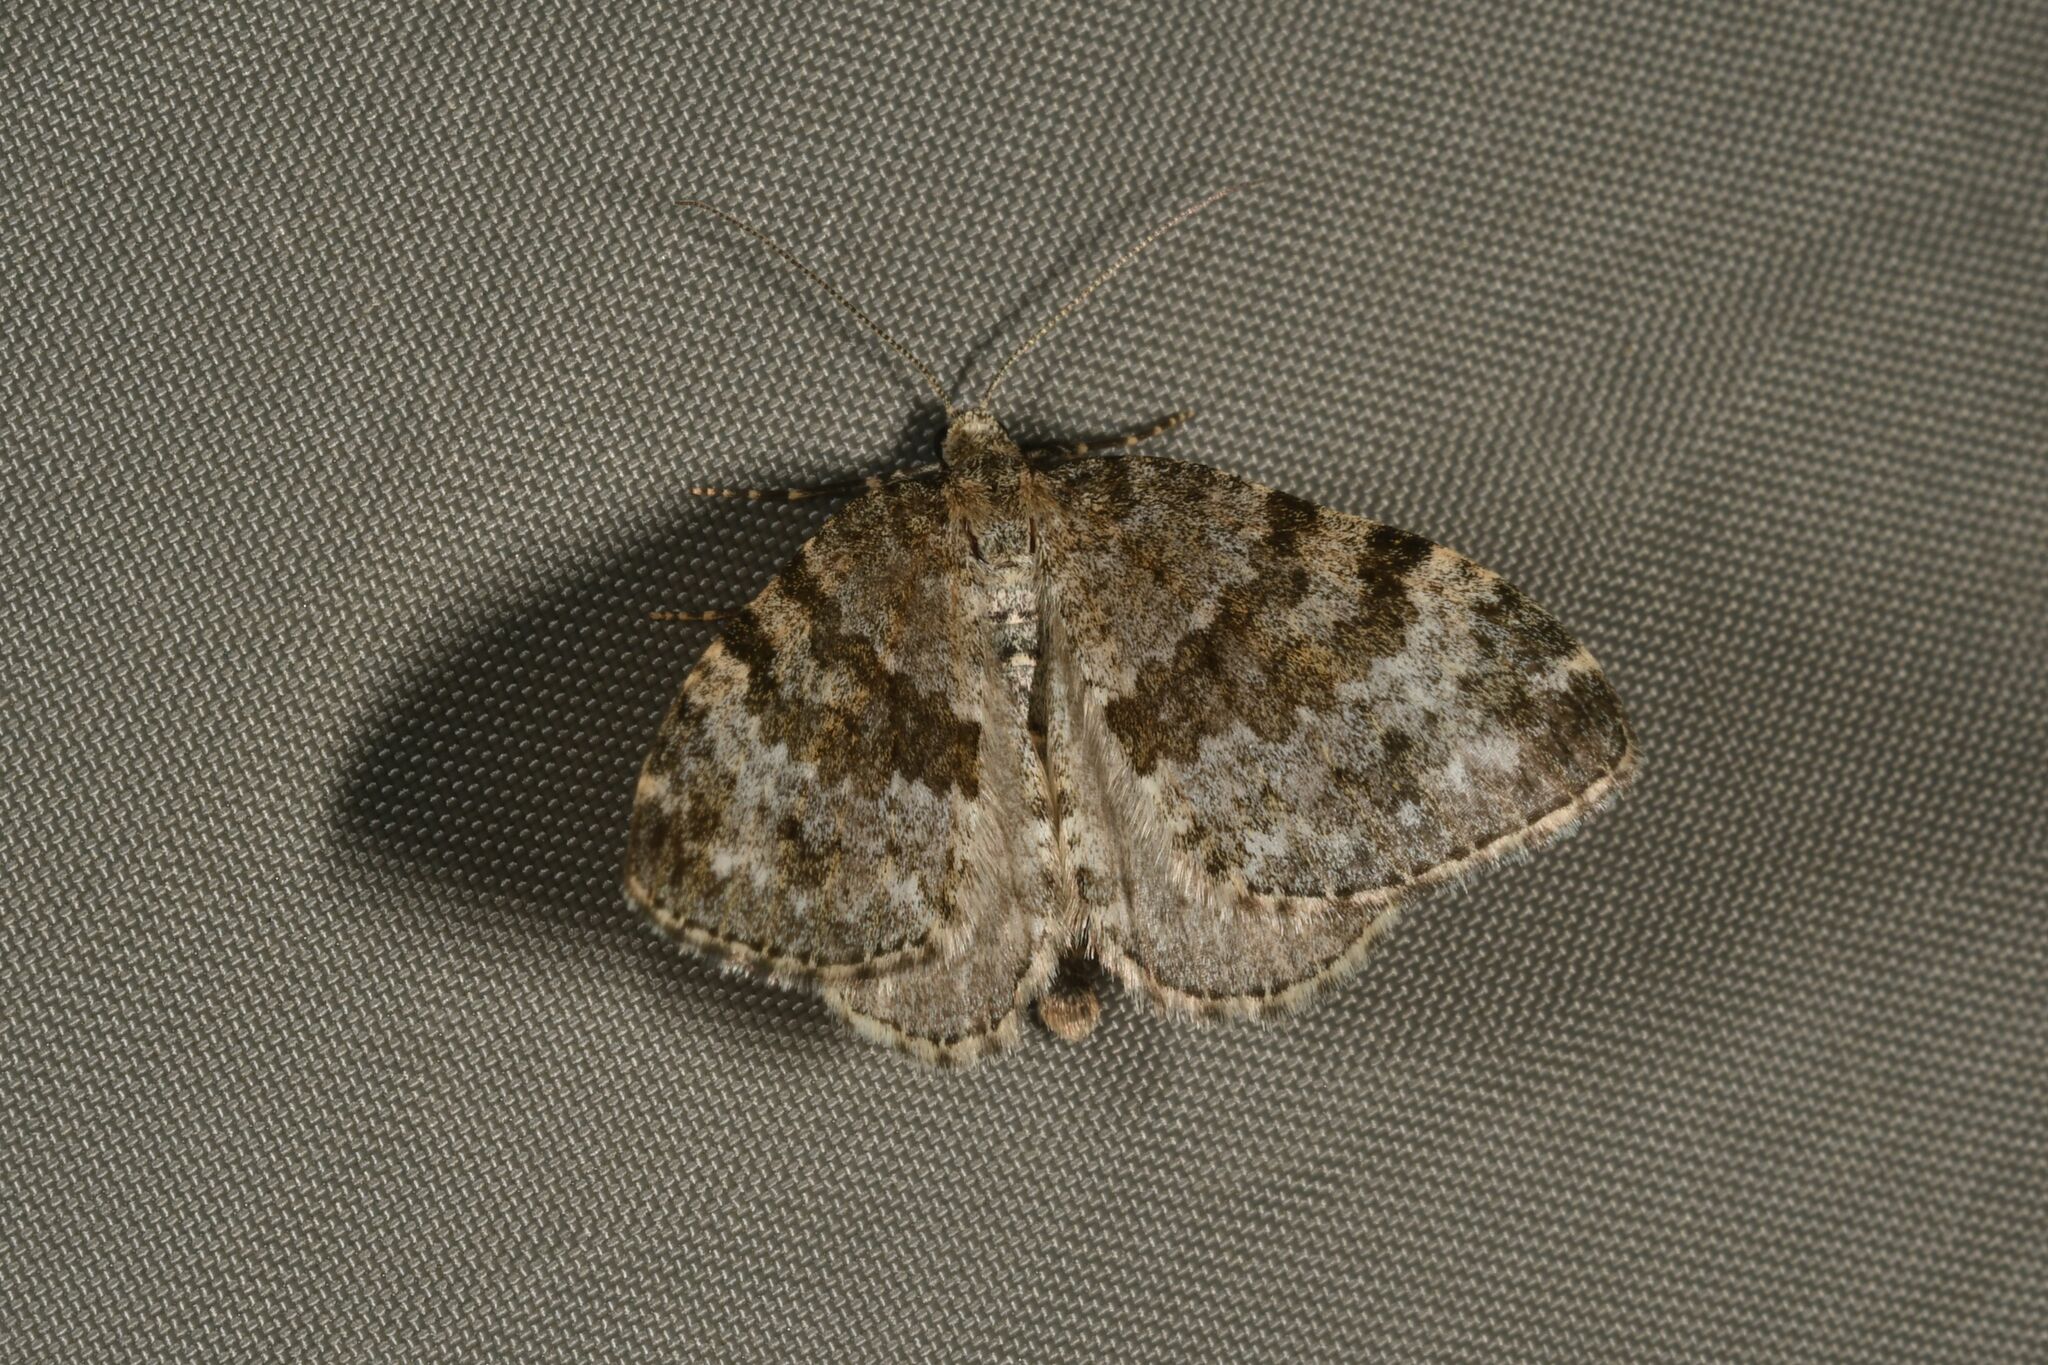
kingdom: Animalia
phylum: Arthropoda
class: Insecta
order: Lepidoptera
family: Geometridae
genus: Entephria
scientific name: Entephria caesiata
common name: Grey mountain moth
